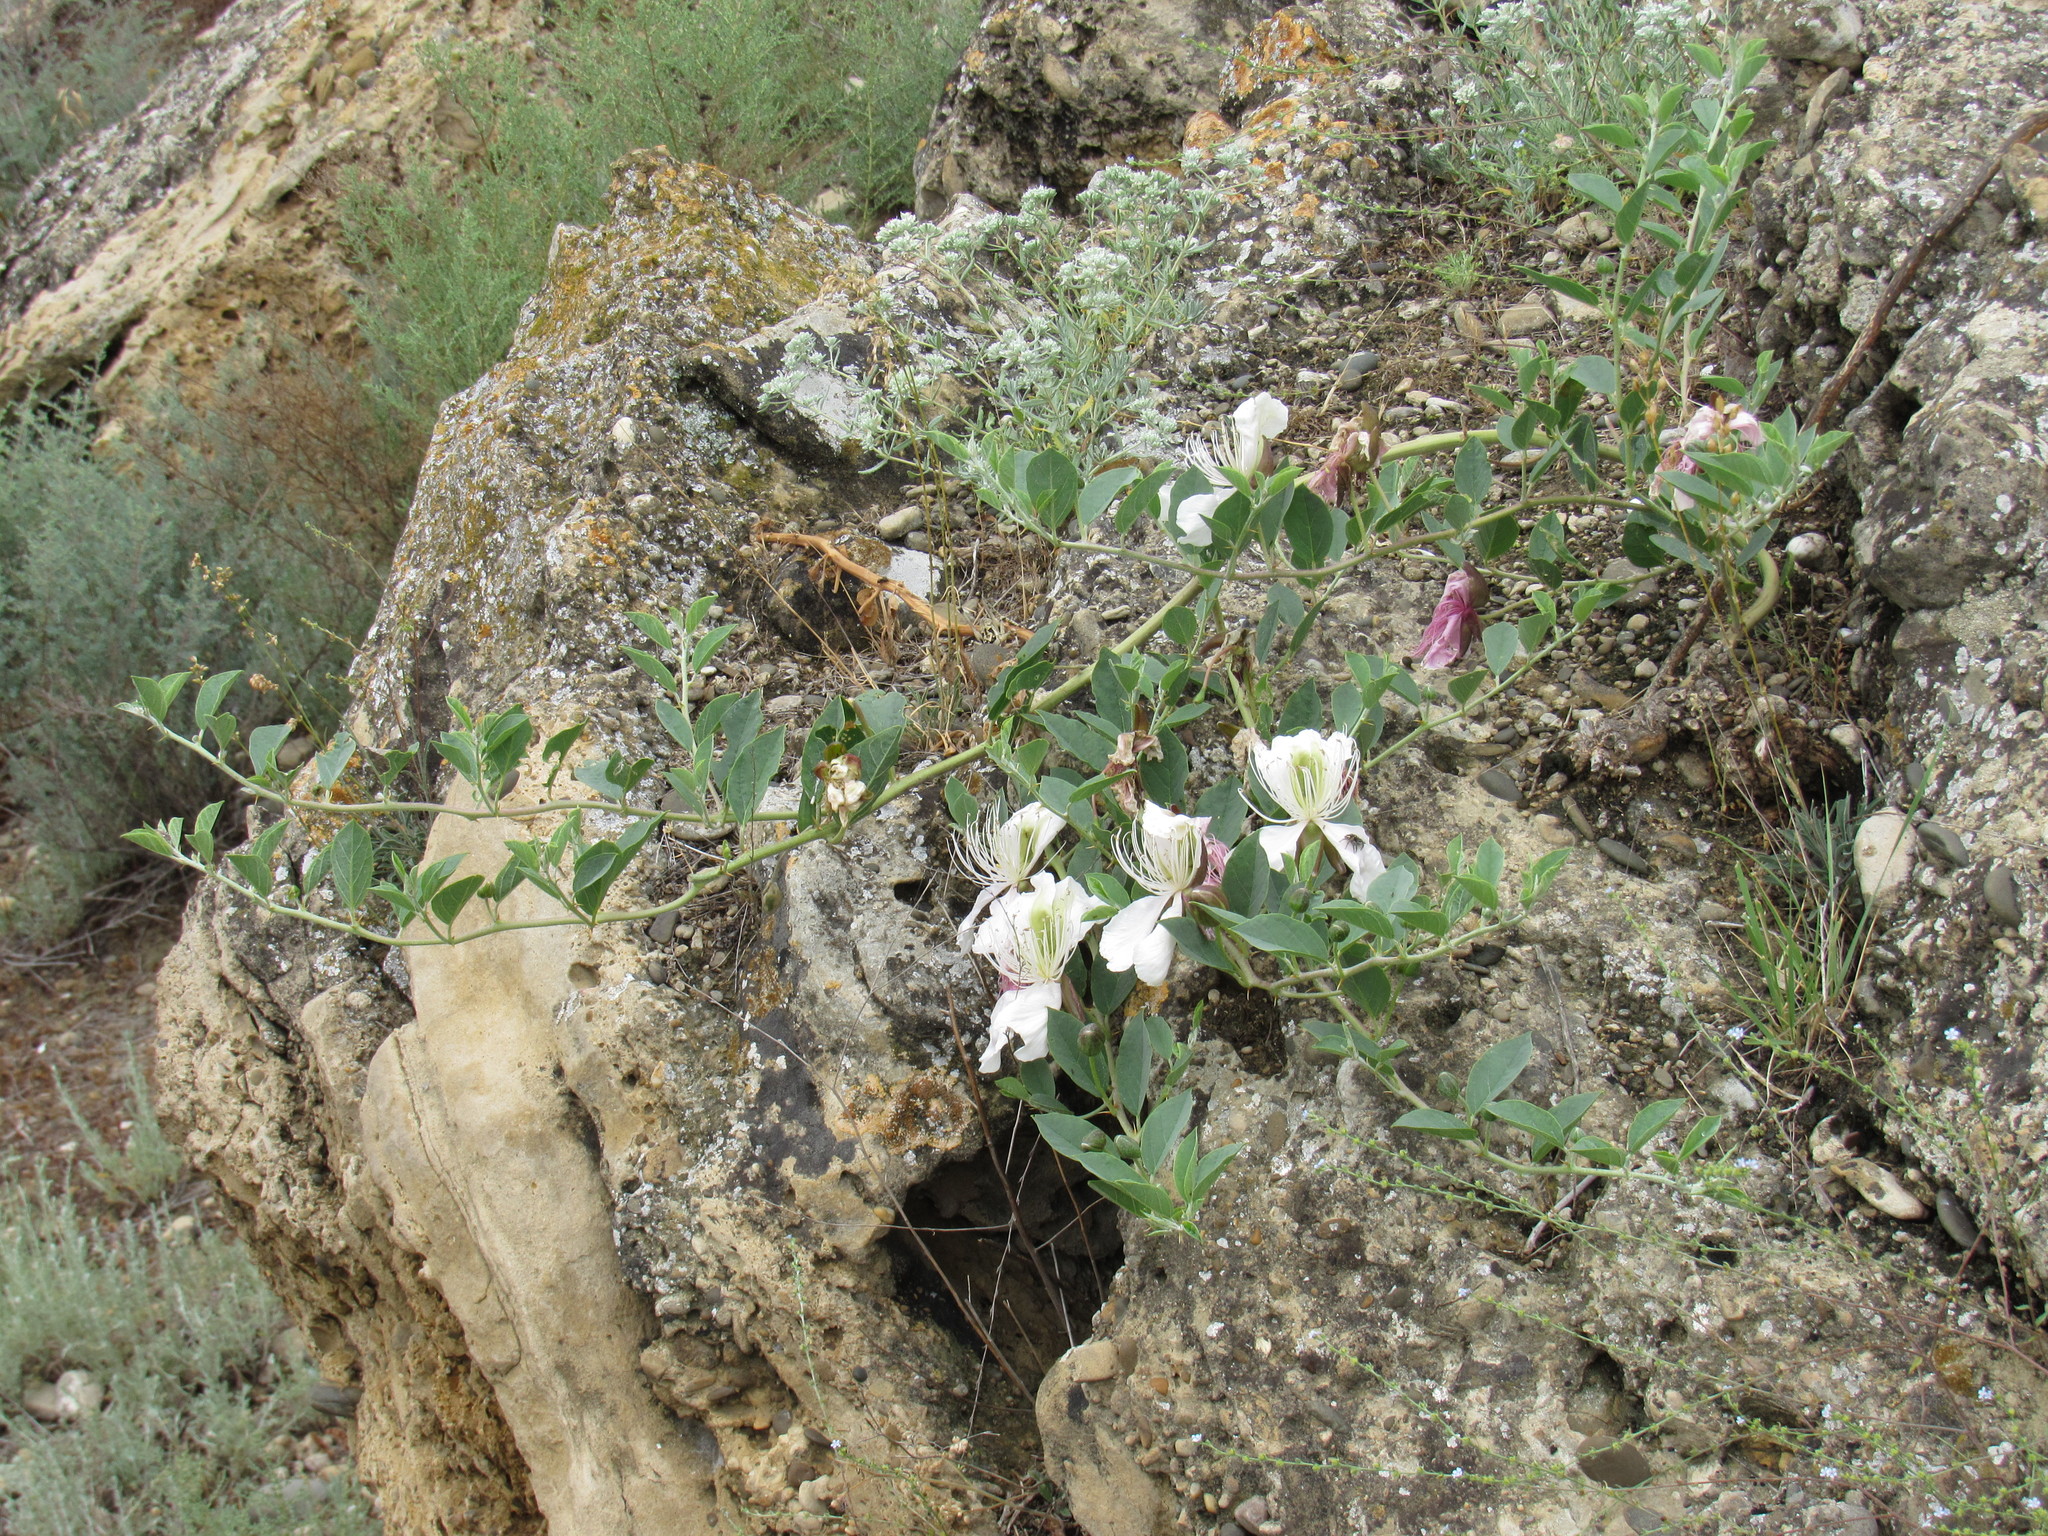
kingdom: Plantae
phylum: Tracheophyta
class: Magnoliopsida
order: Brassicales
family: Capparaceae
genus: Capparis
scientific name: Capparis spinosa
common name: Caper
